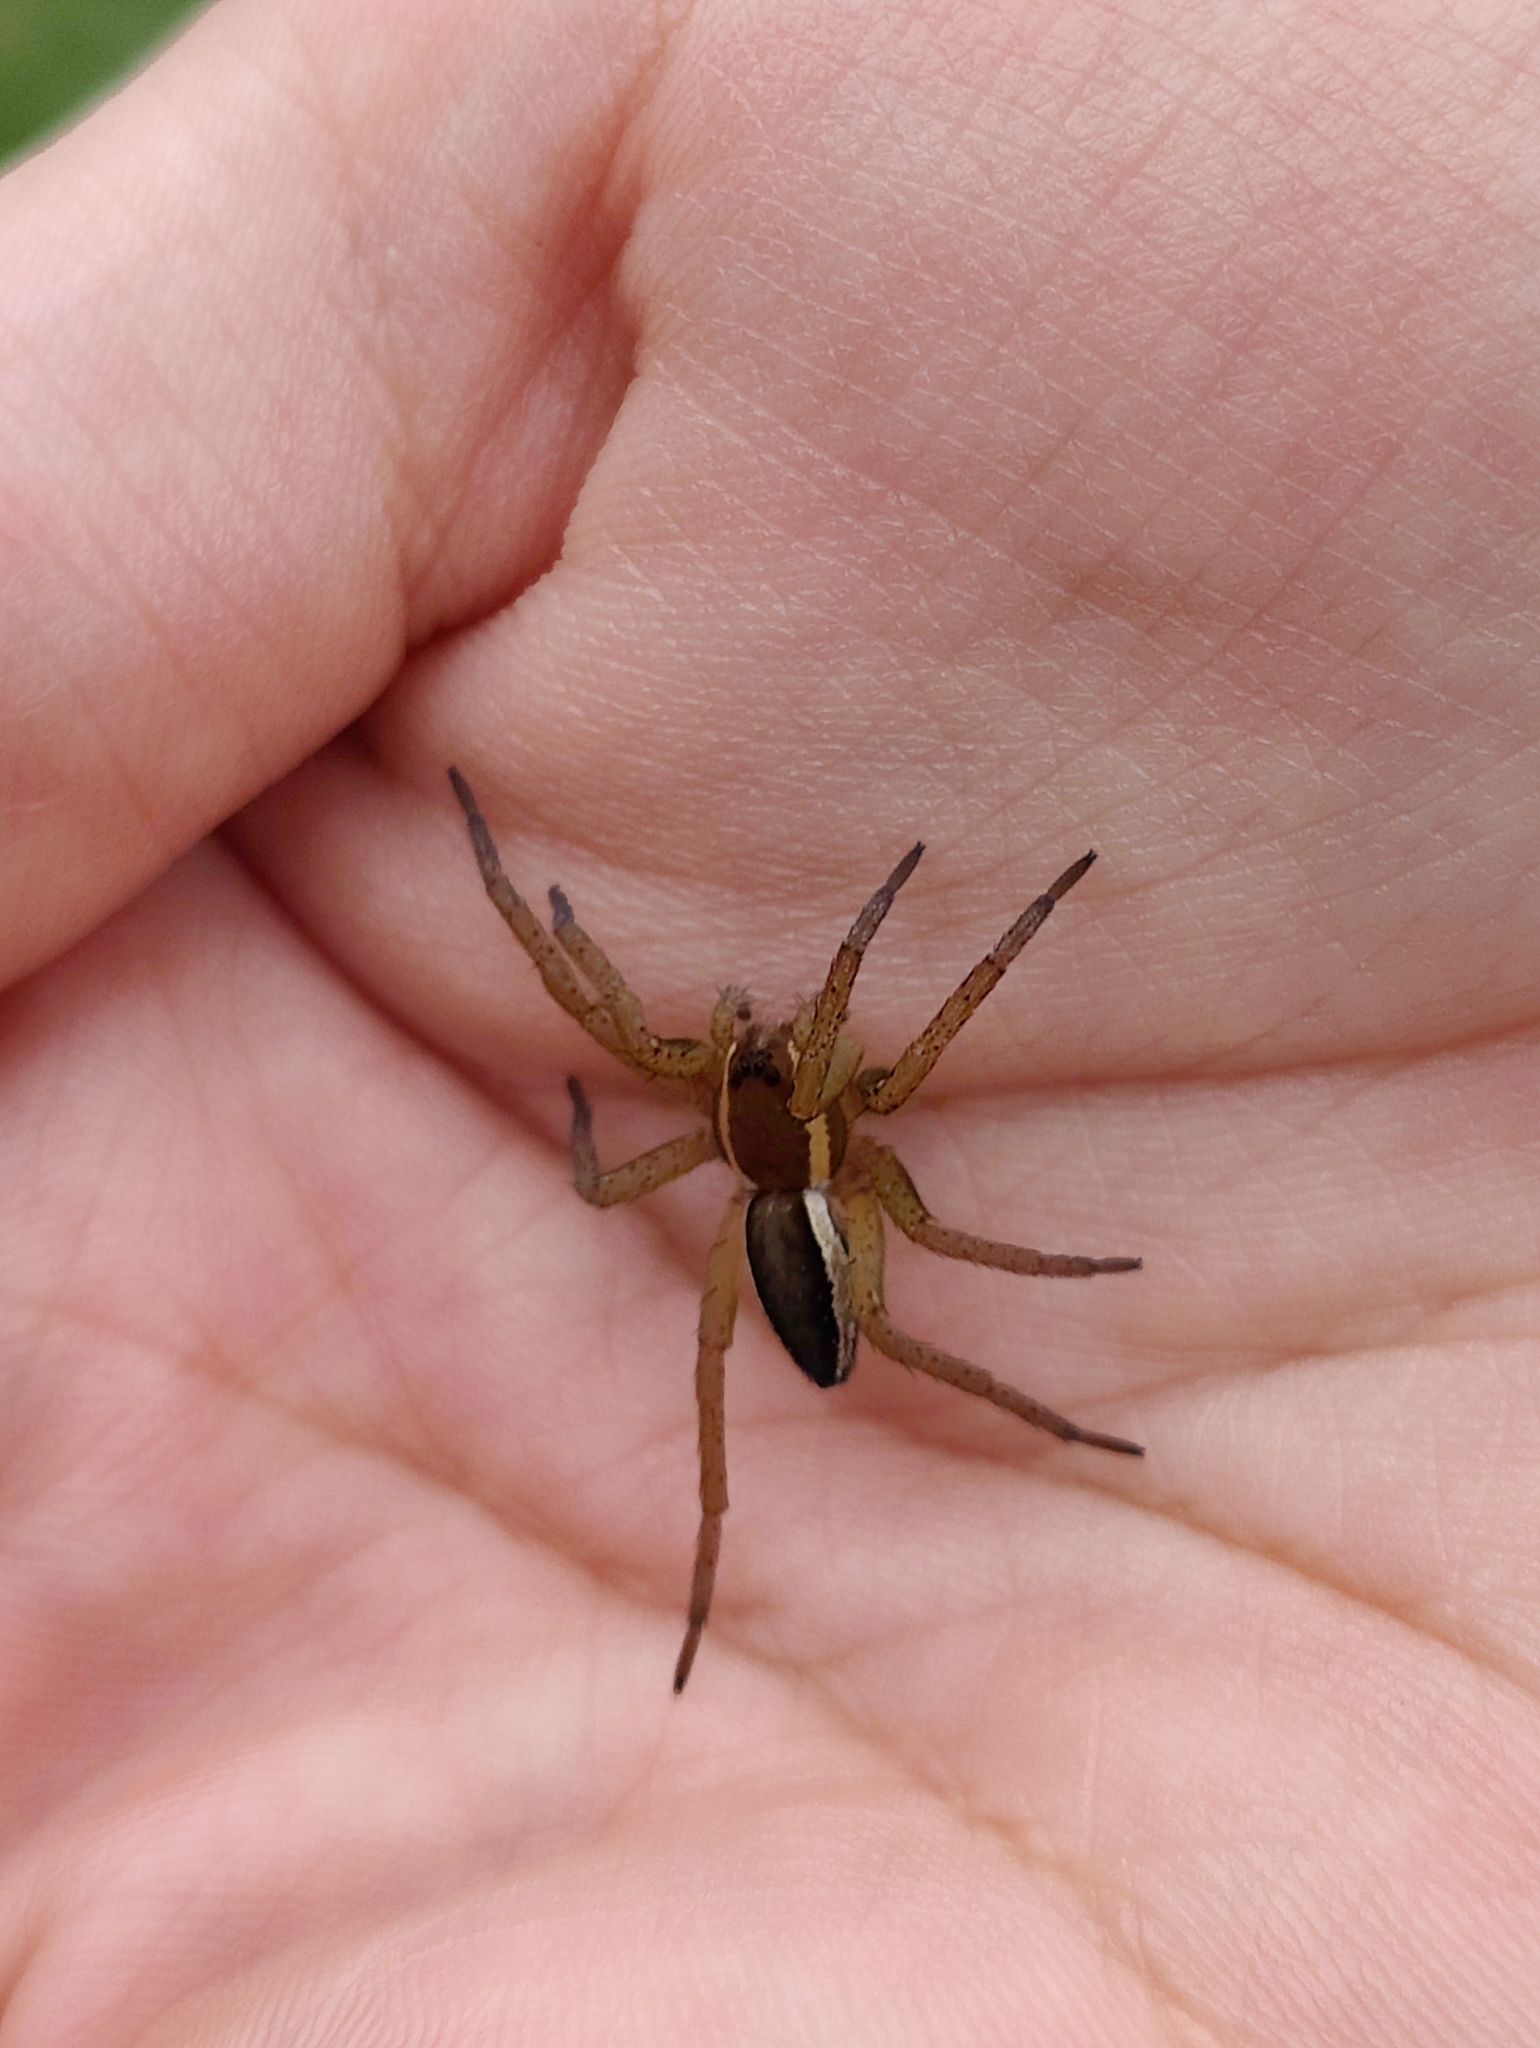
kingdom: Animalia
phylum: Arthropoda
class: Arachnida
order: Araneae
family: Pisauridae
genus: Dolomedes
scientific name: Dolomedes fimbriatus
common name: Raft spider
